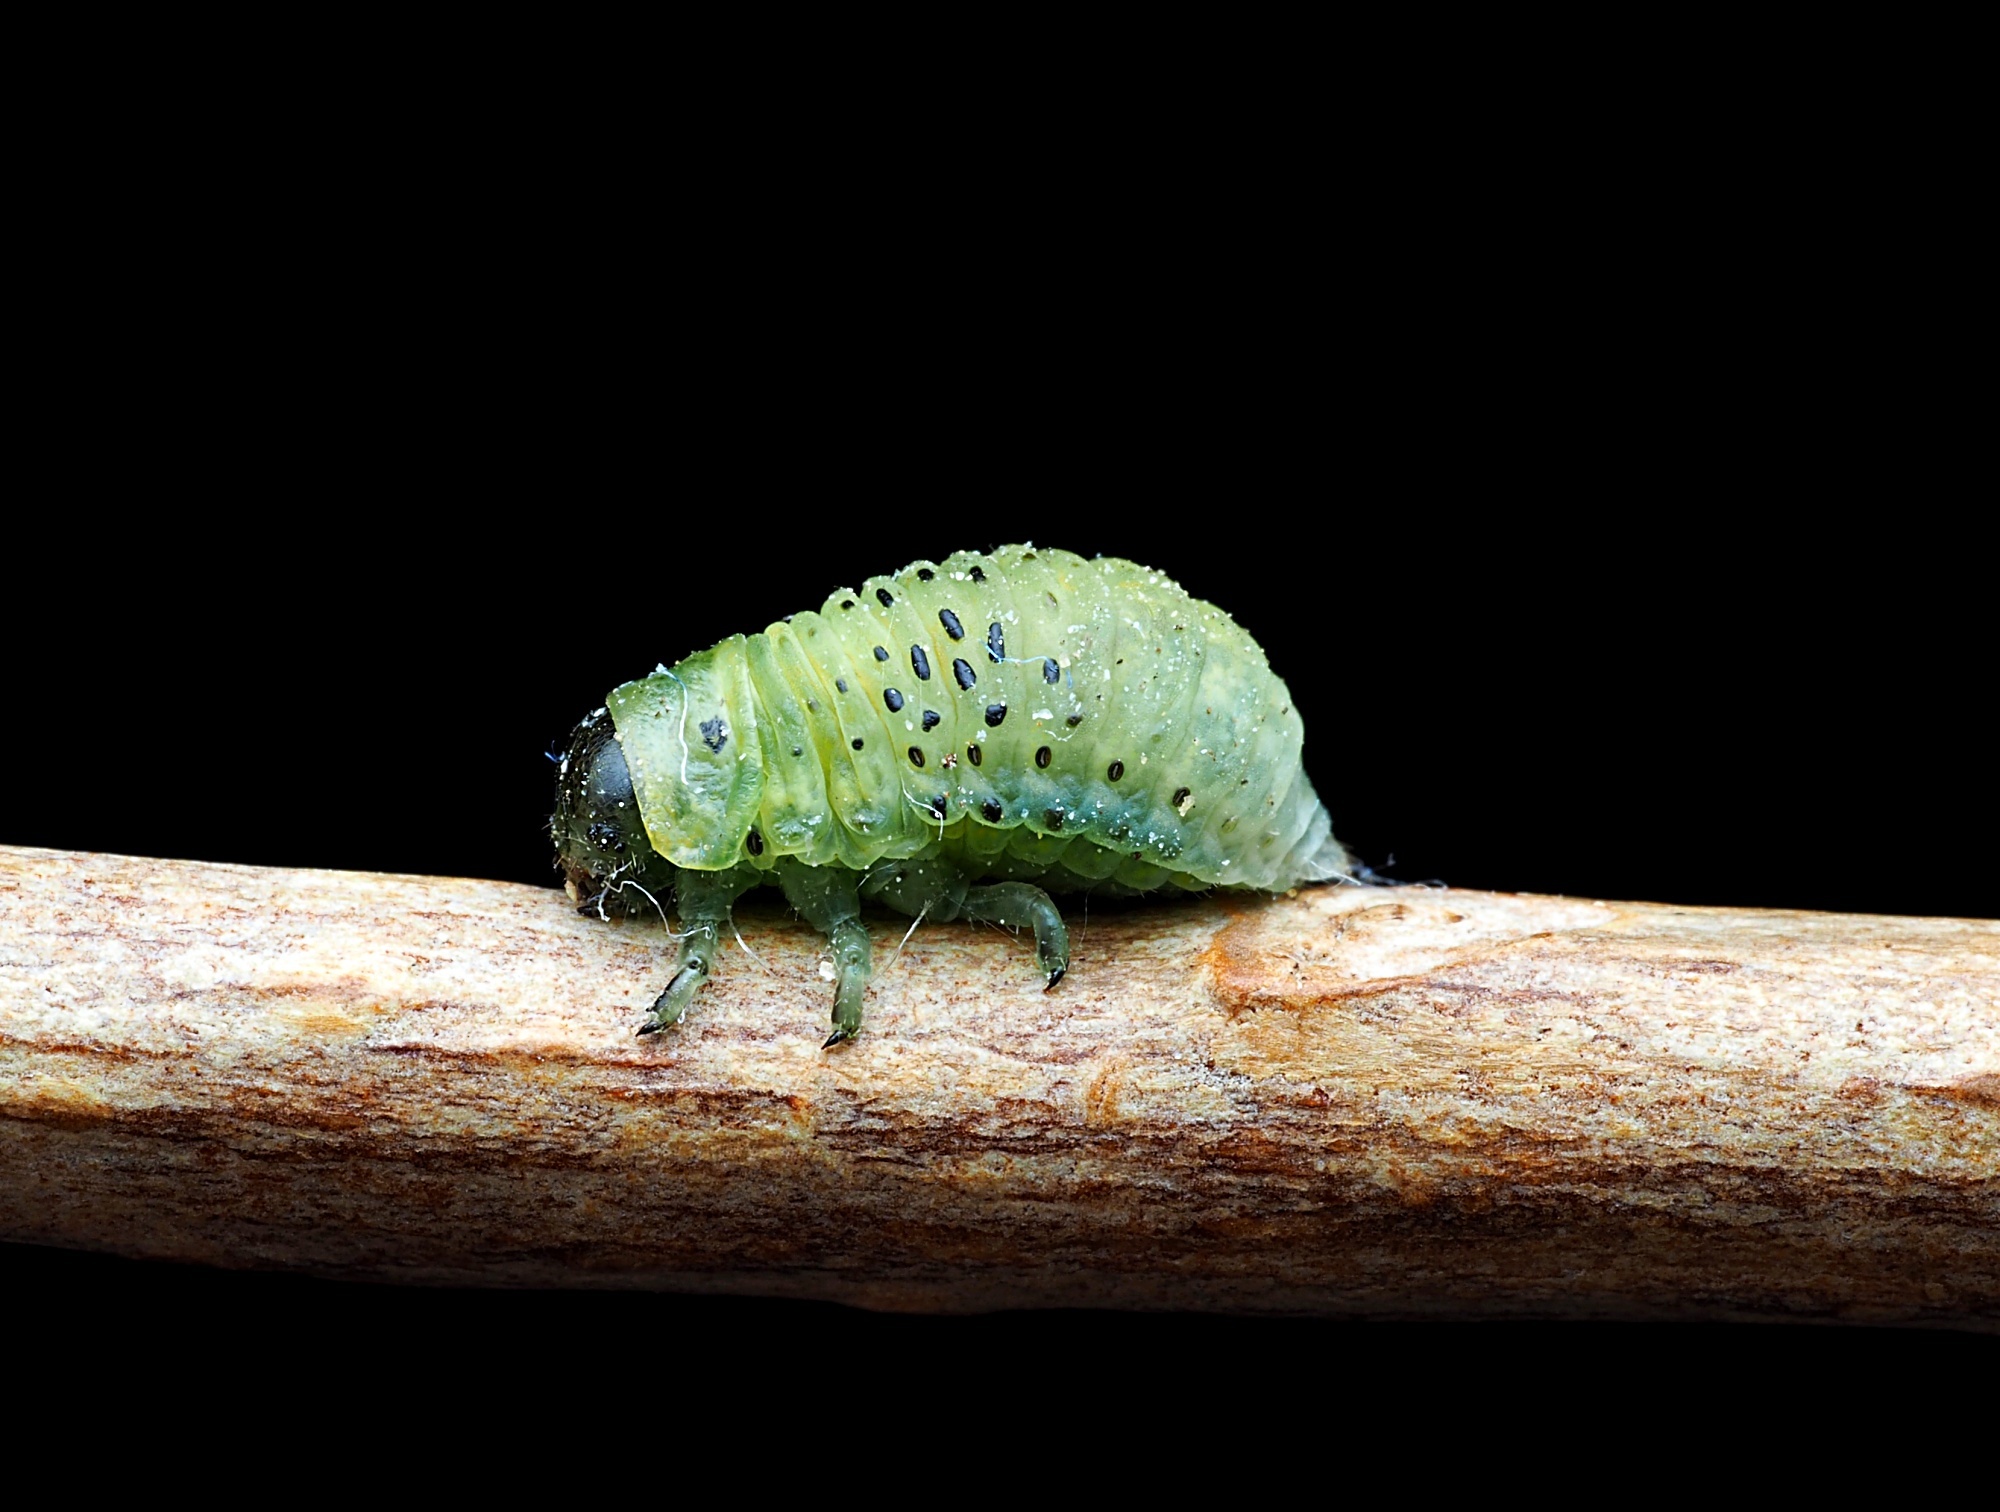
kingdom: Animalia
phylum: Arthropoda
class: Insecta
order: Coleoptera
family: Chrysomelidae
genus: Dicranosterna
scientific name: Dicranosterna
